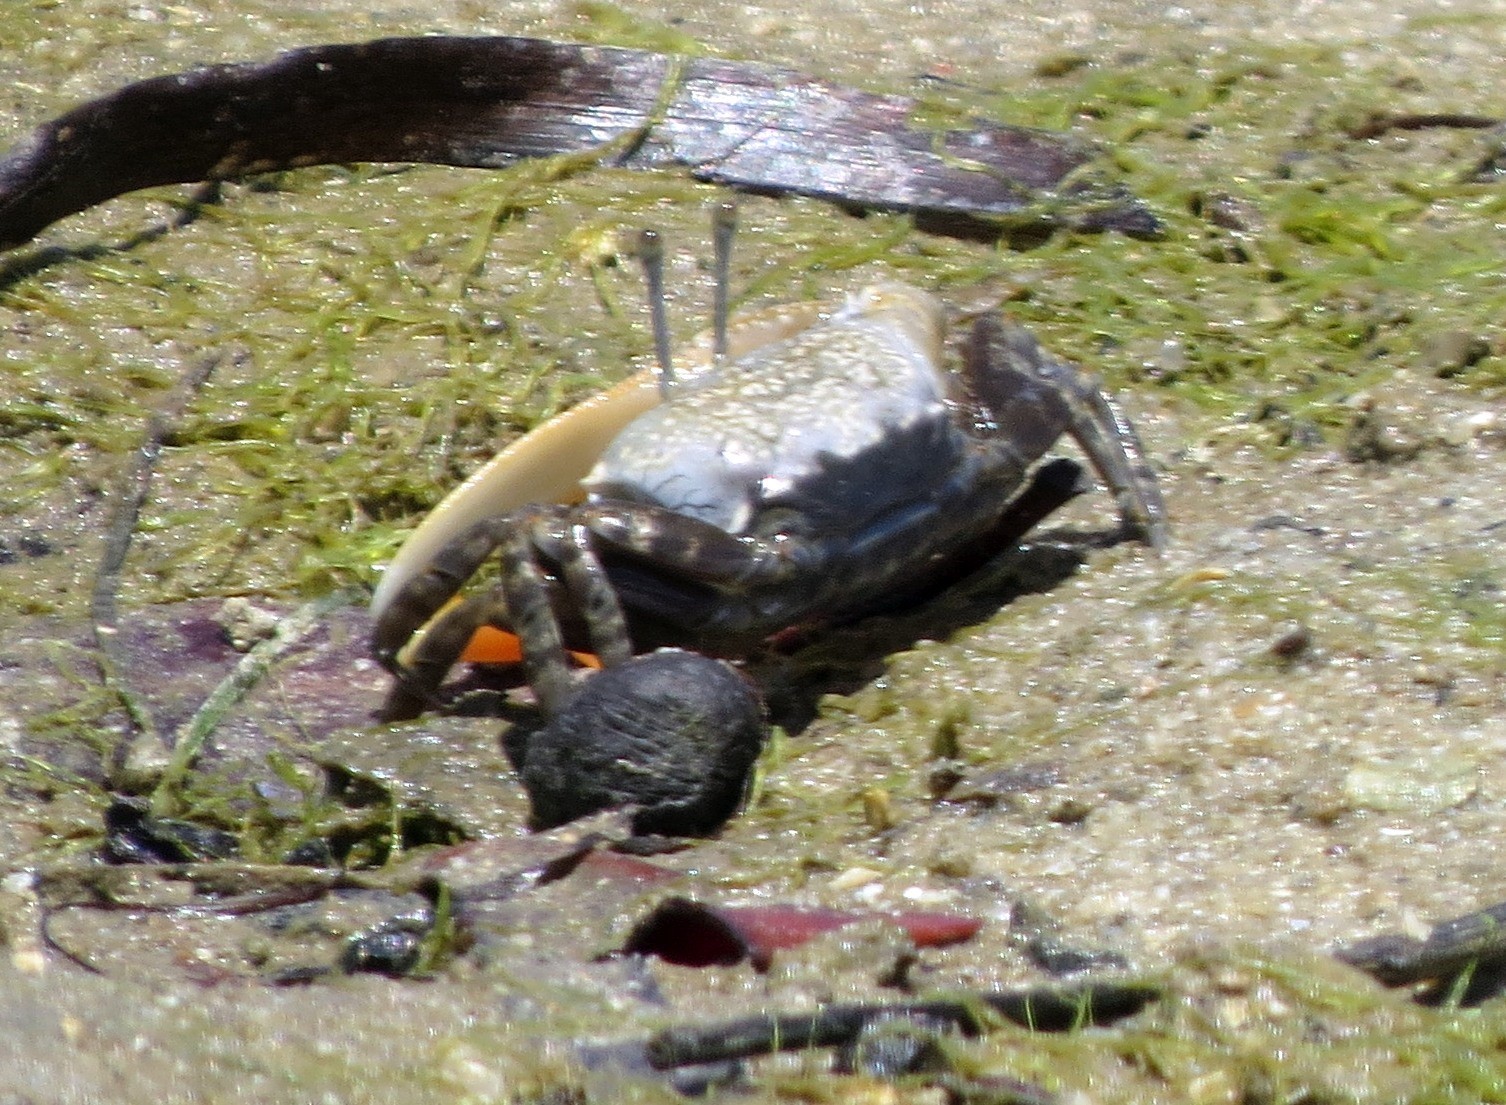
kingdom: Animalia
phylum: Arthropoda
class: Malacostraca
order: Decapoda
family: Ocypodidae
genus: Gelasimus
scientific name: Gelasimus hesperiae
